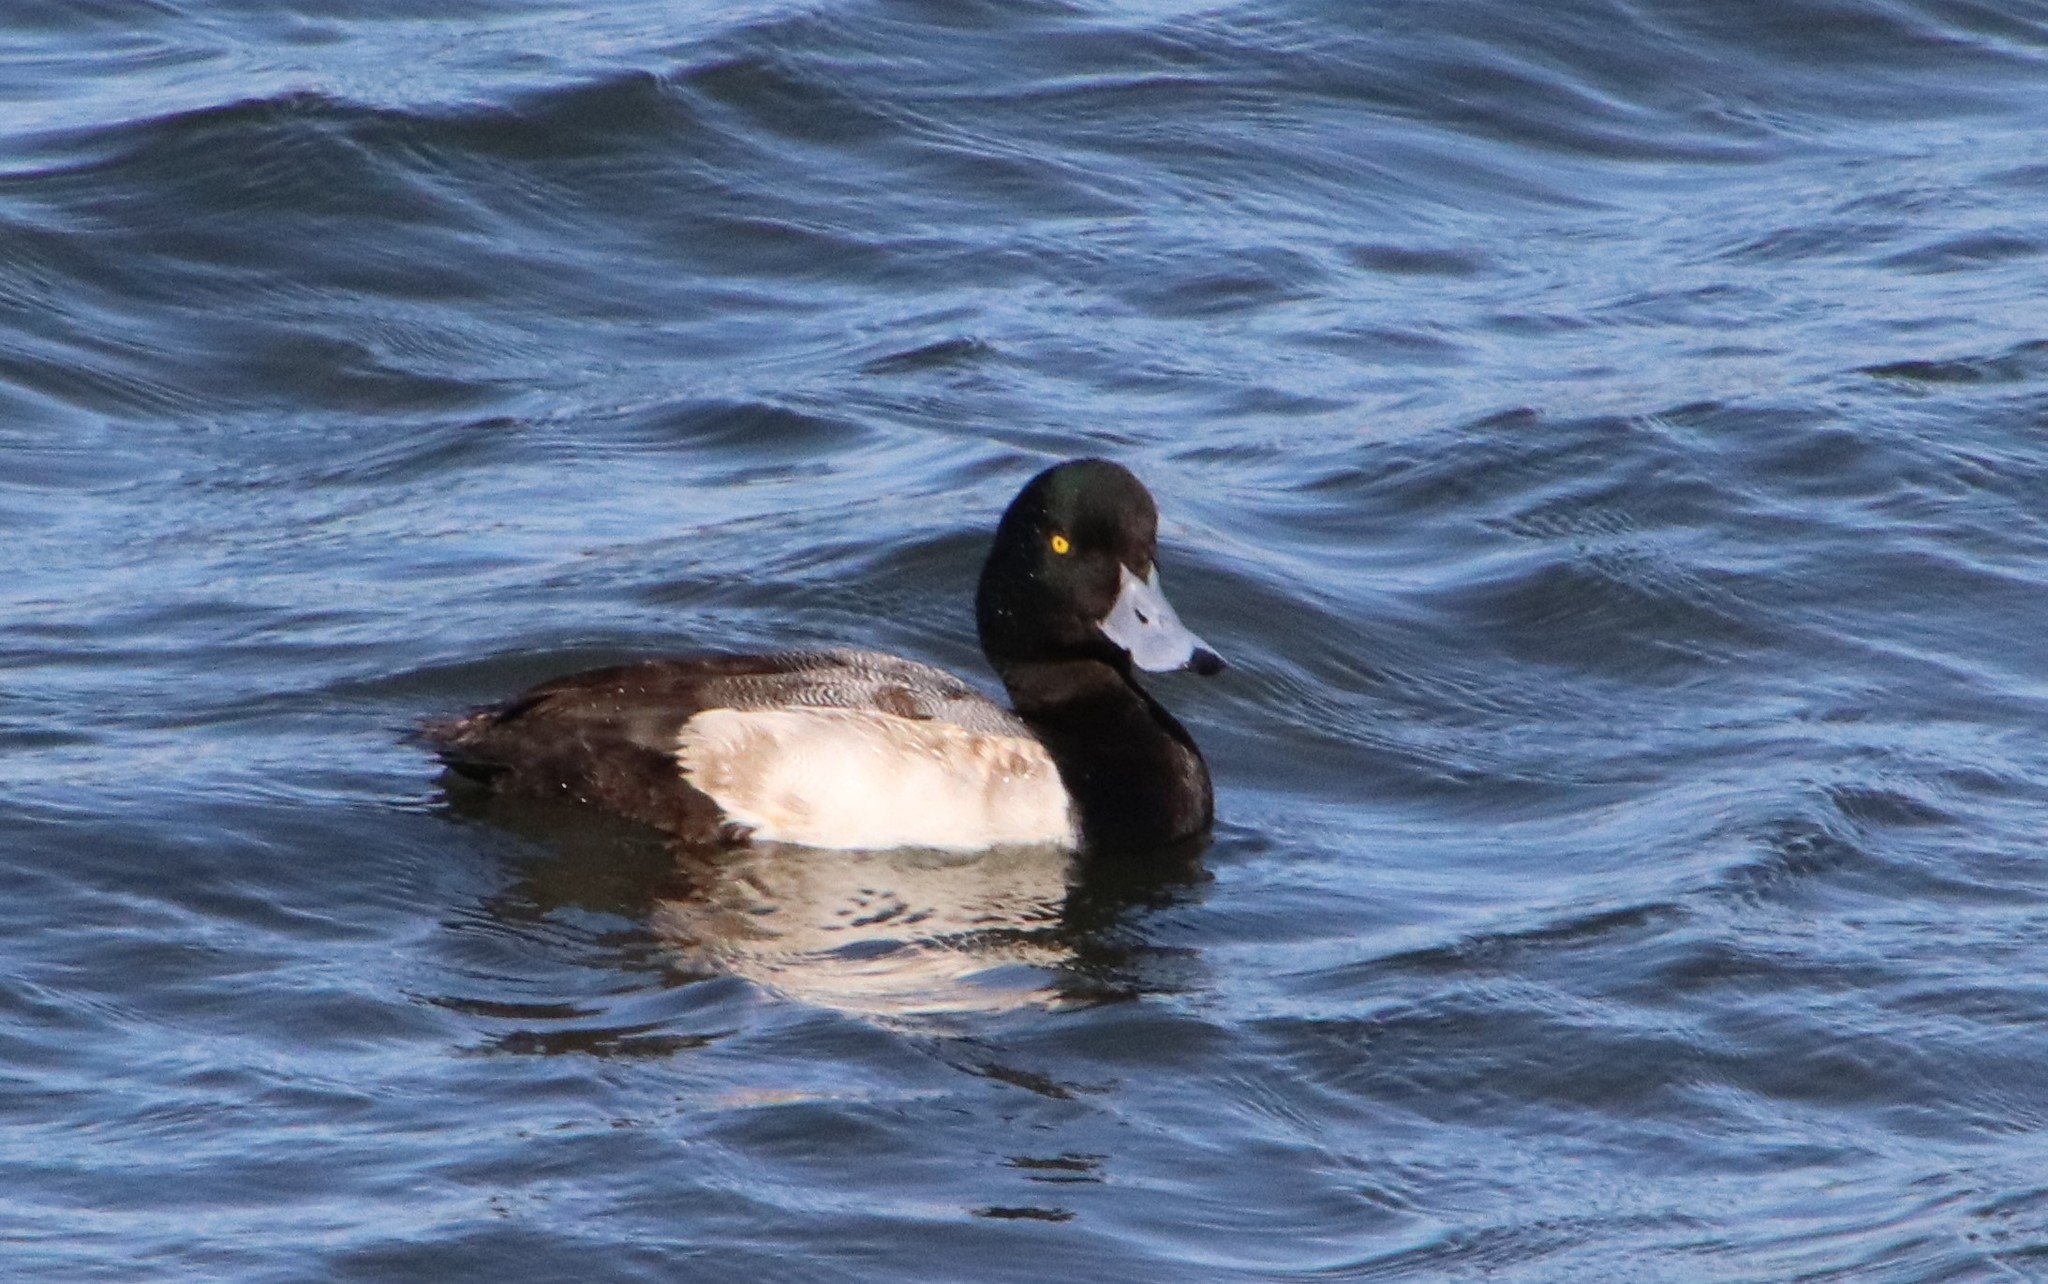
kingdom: Animalia
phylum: Chordata
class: Aves
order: Anseriformes
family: Anatidae
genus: Aythya
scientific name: Aythya marila
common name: Greater scaup
